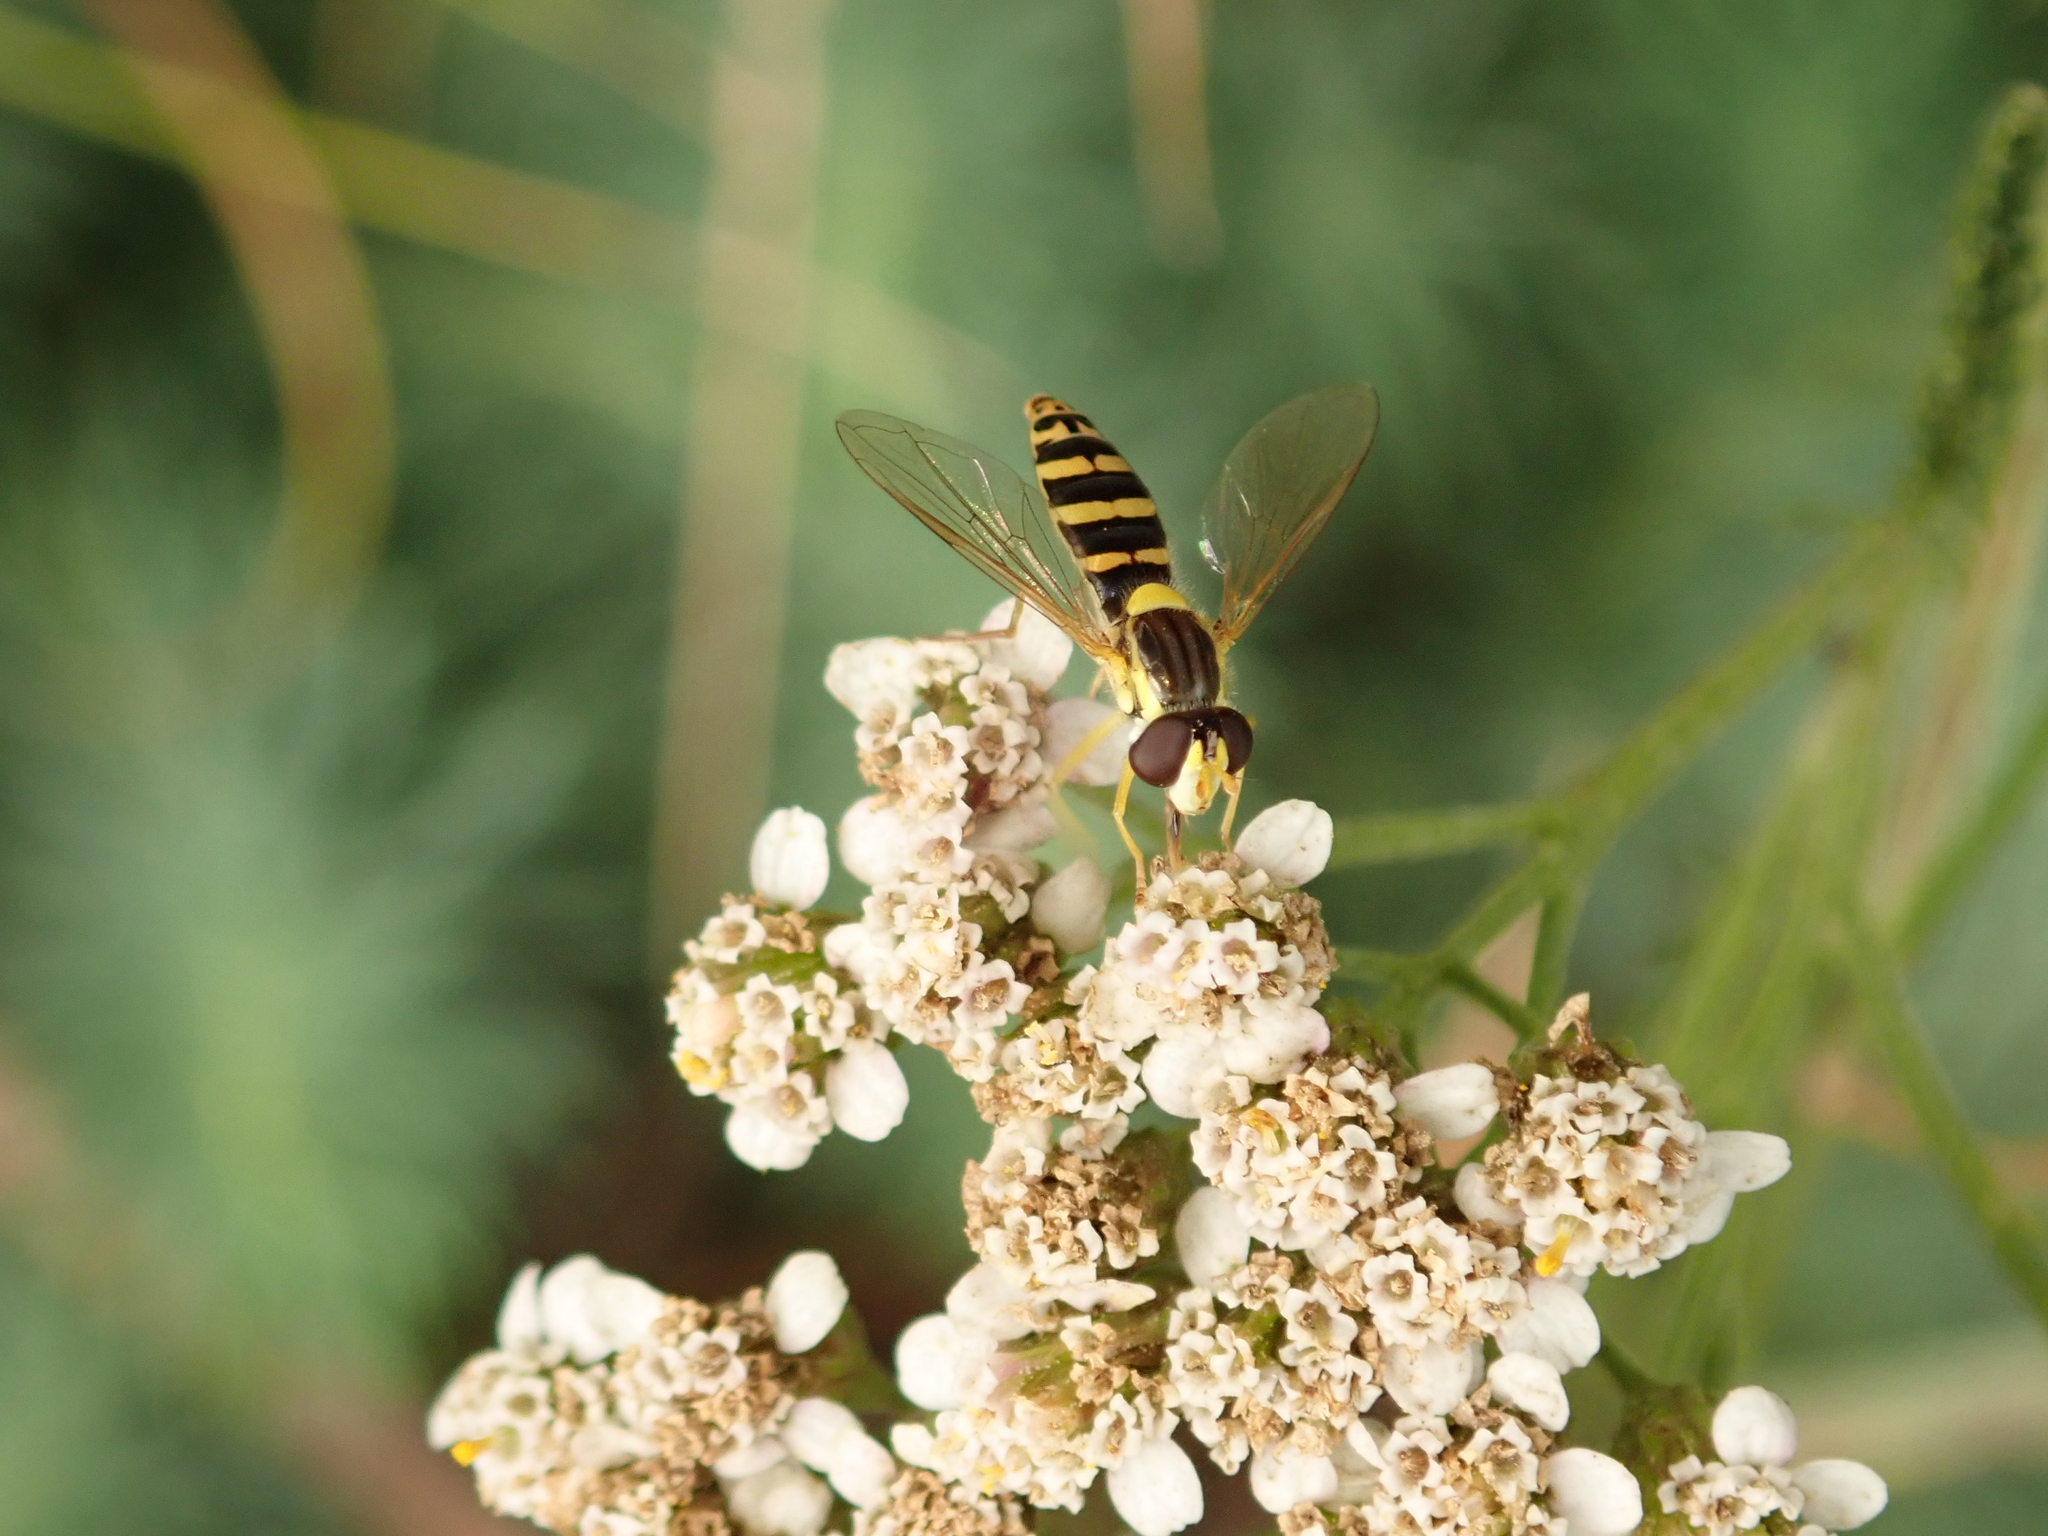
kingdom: Plantae
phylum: Tracheophyta
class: Magnoliopsida
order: Asterales
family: Asteraceae
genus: Achillea
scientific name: Achillea millefolium
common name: Yarrow
